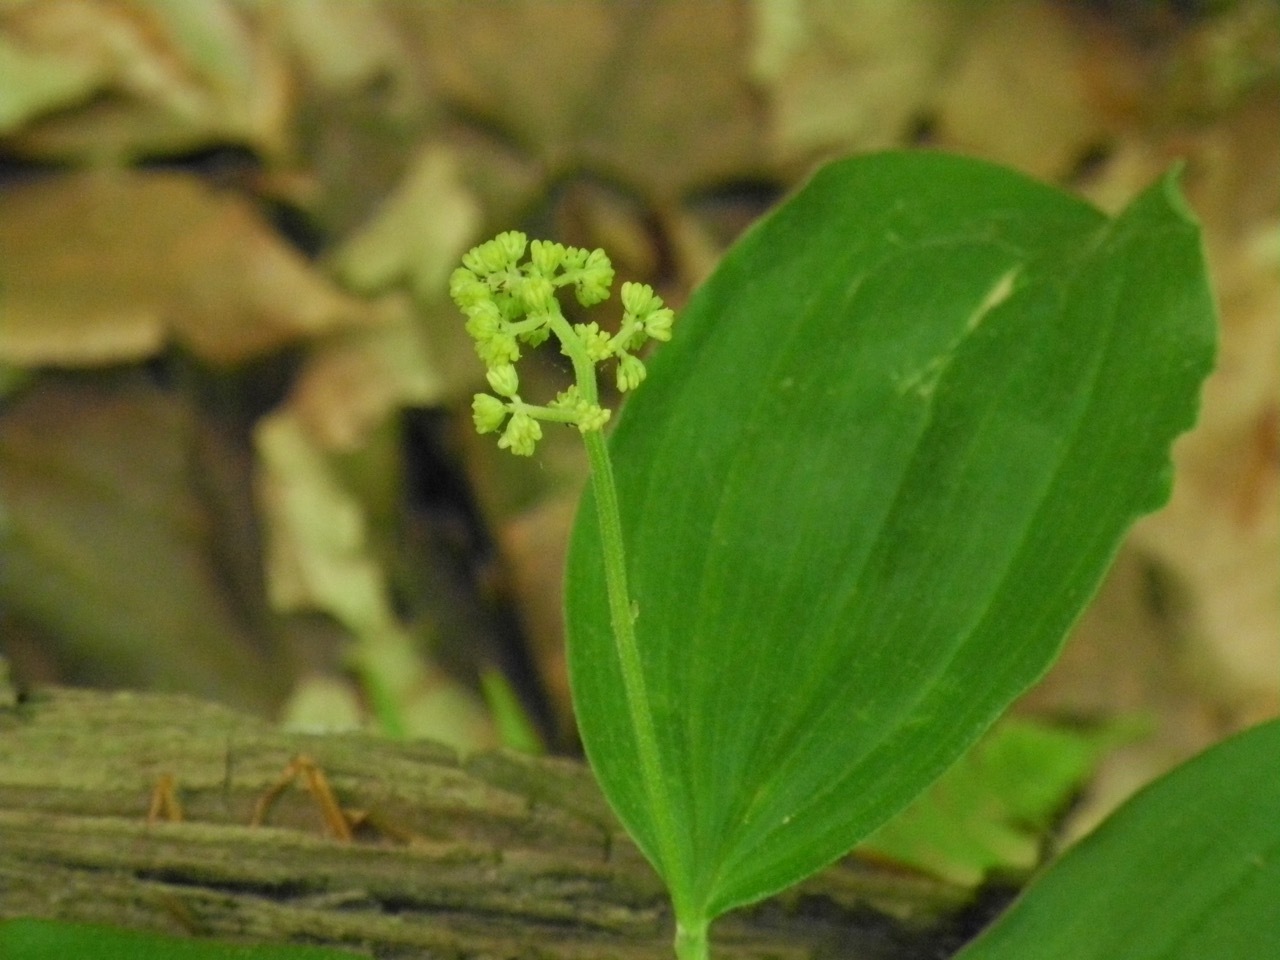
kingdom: Plantae
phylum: Tracheophyta
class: Liliopsida
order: Asparagales
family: Asparagaceae
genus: Maianthemum
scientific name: Maianthemum racemosum
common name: False spikenard
